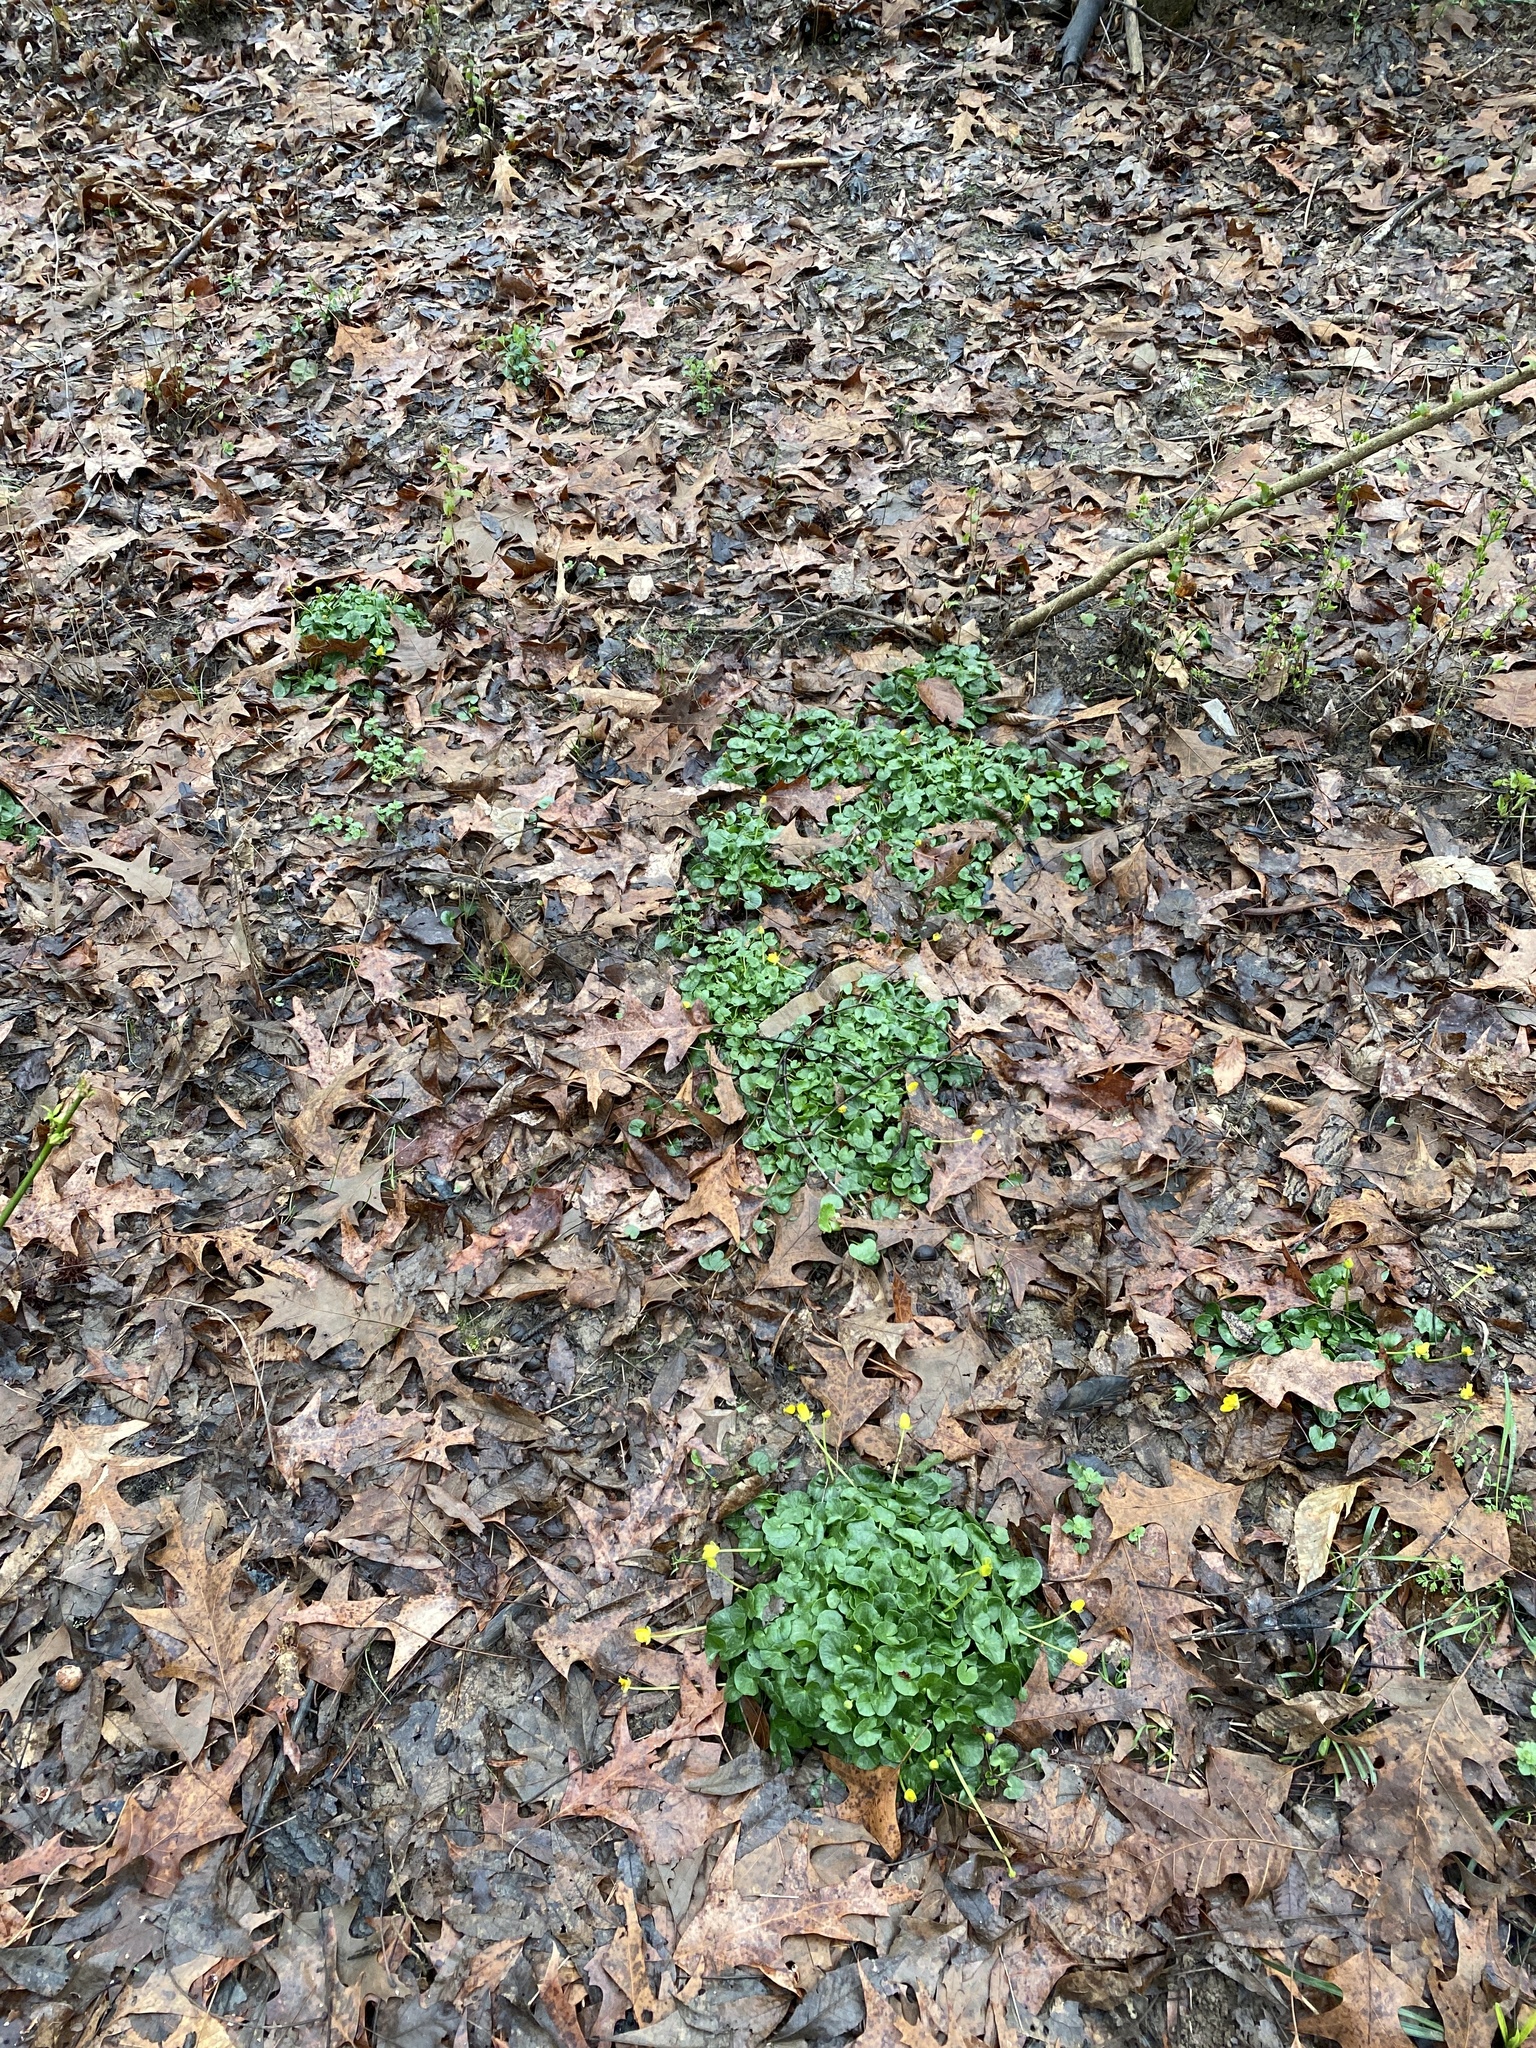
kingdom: Plantae
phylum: Tracheophyta
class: Magnoliopsida
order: Ranunculales
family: Ranunculaceae
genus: Ficaria
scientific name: Ficaria verna
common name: Lesser celandine
